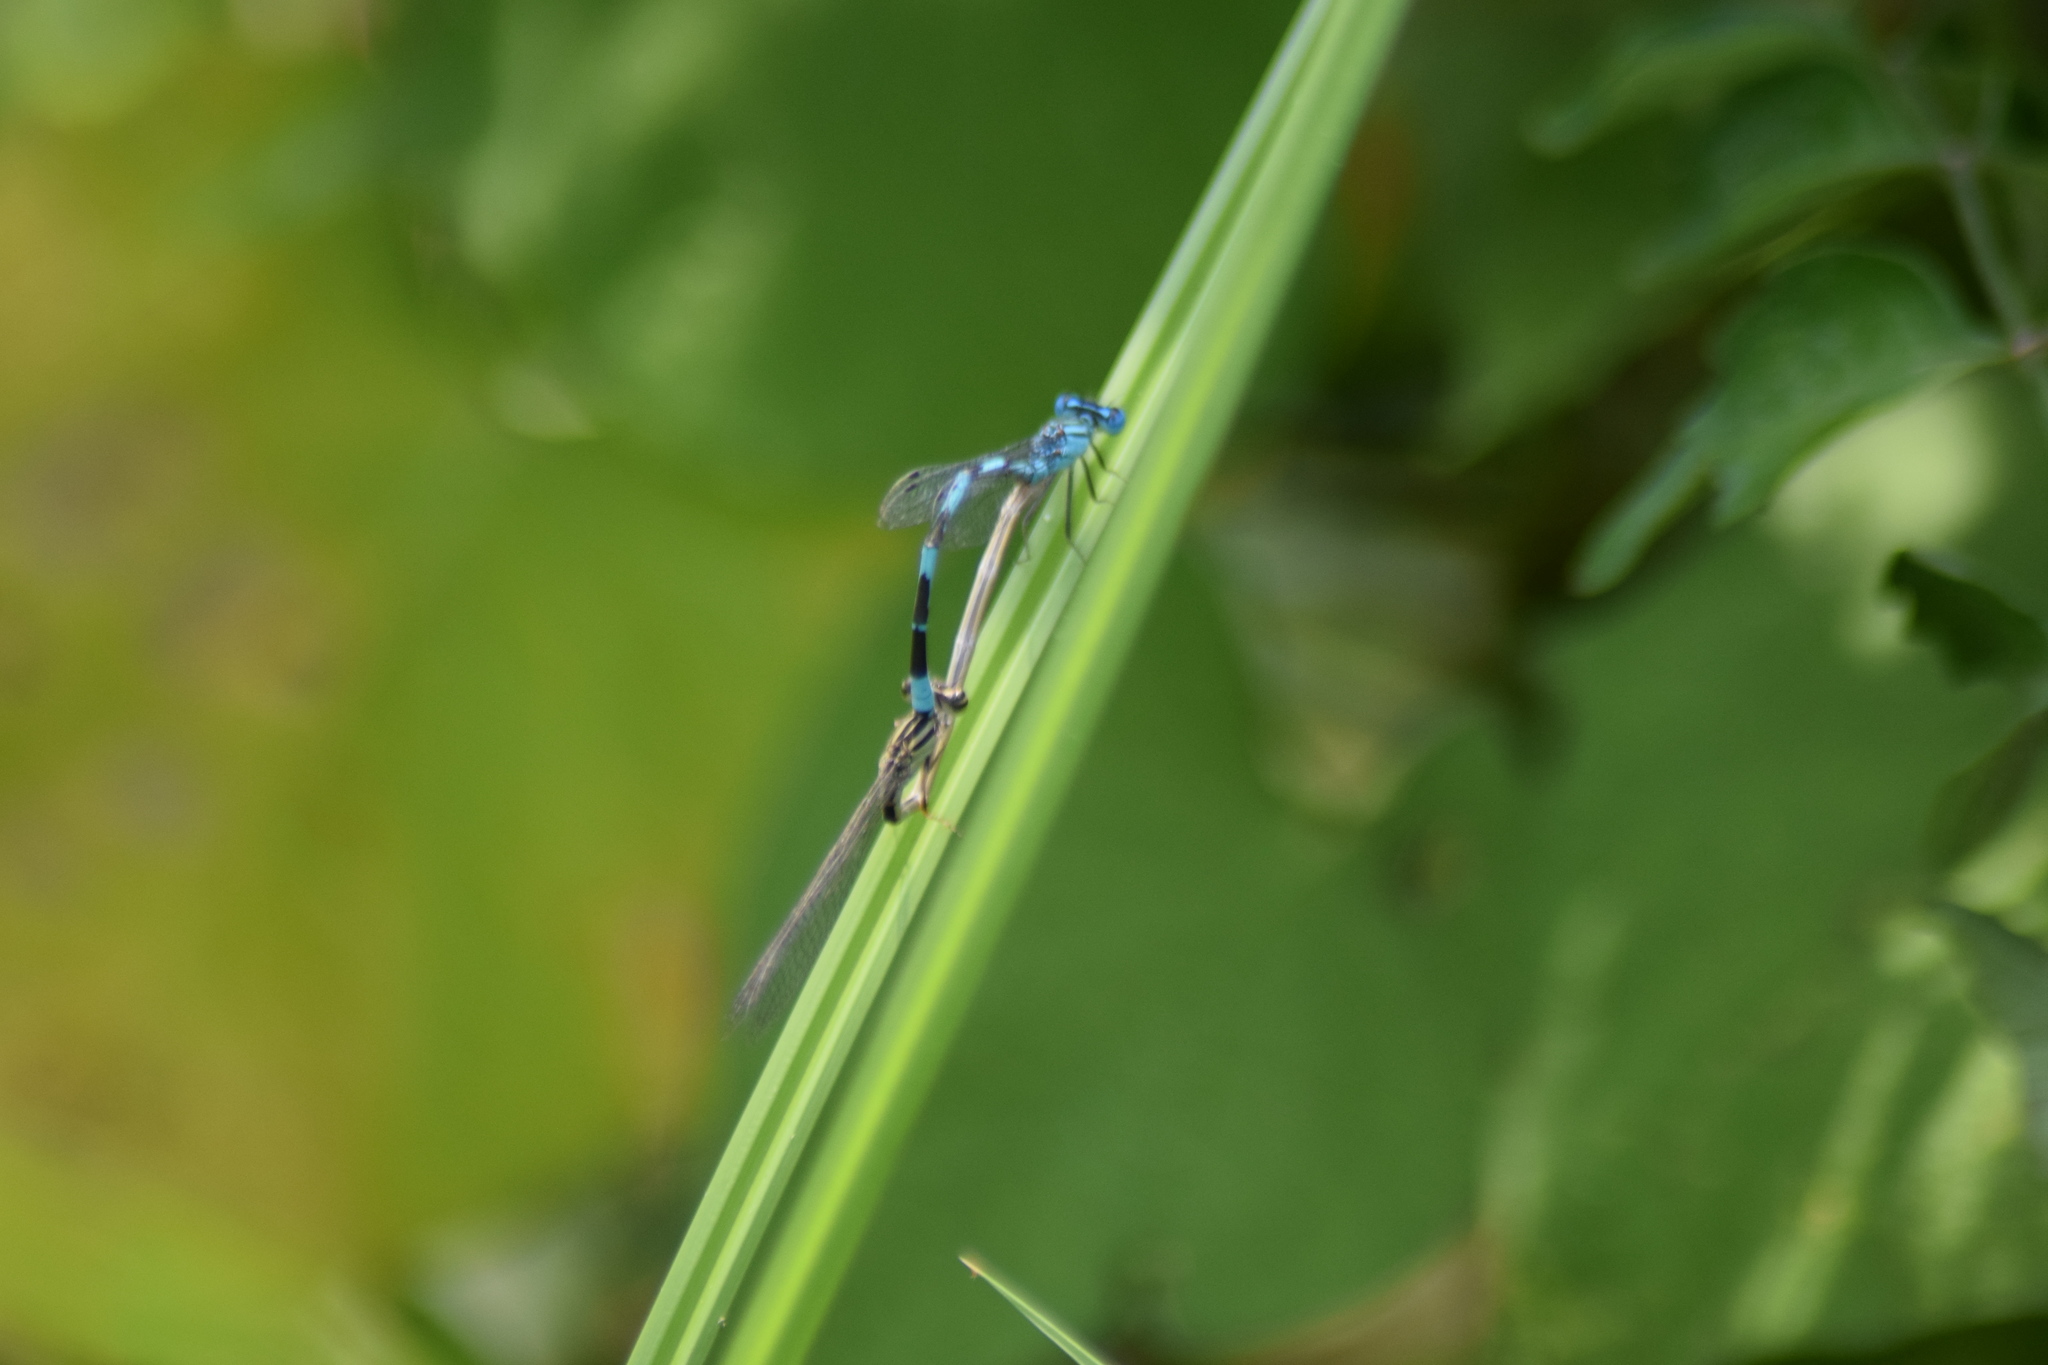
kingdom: Animalia
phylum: Arthropoda
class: Insecta
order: Odonata
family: Coenagrionidae
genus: Enallagma
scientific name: Enallagma durum
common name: Big bluet
